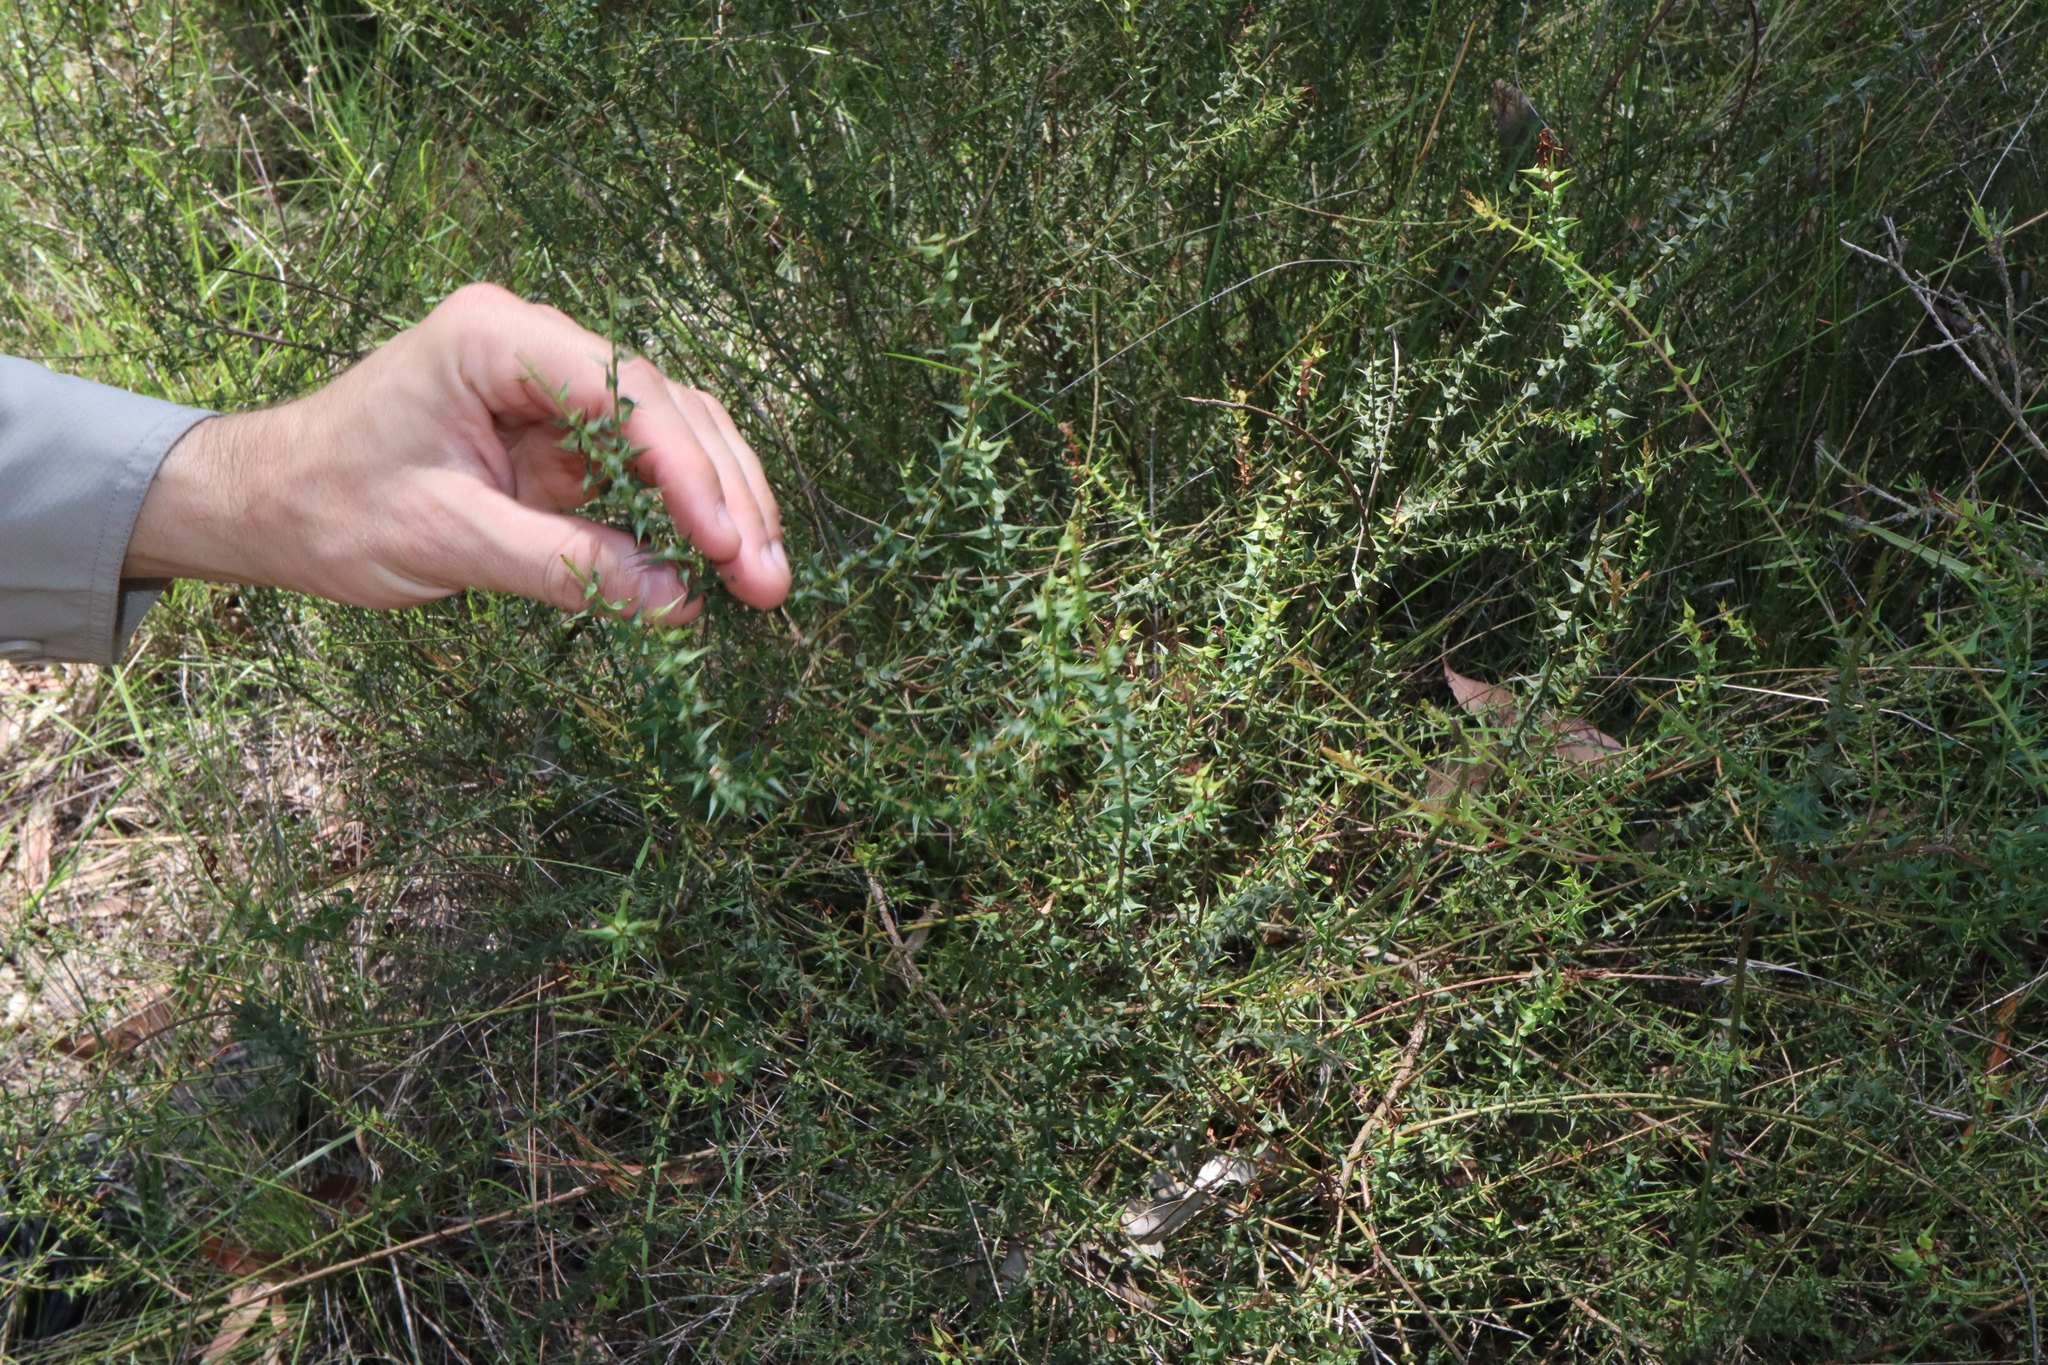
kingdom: Plantae
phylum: Tracheophyta
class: Magnoliopsida
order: Fabales
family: Fabaceae
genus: Daviesia
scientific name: Daviesia squarrosa
